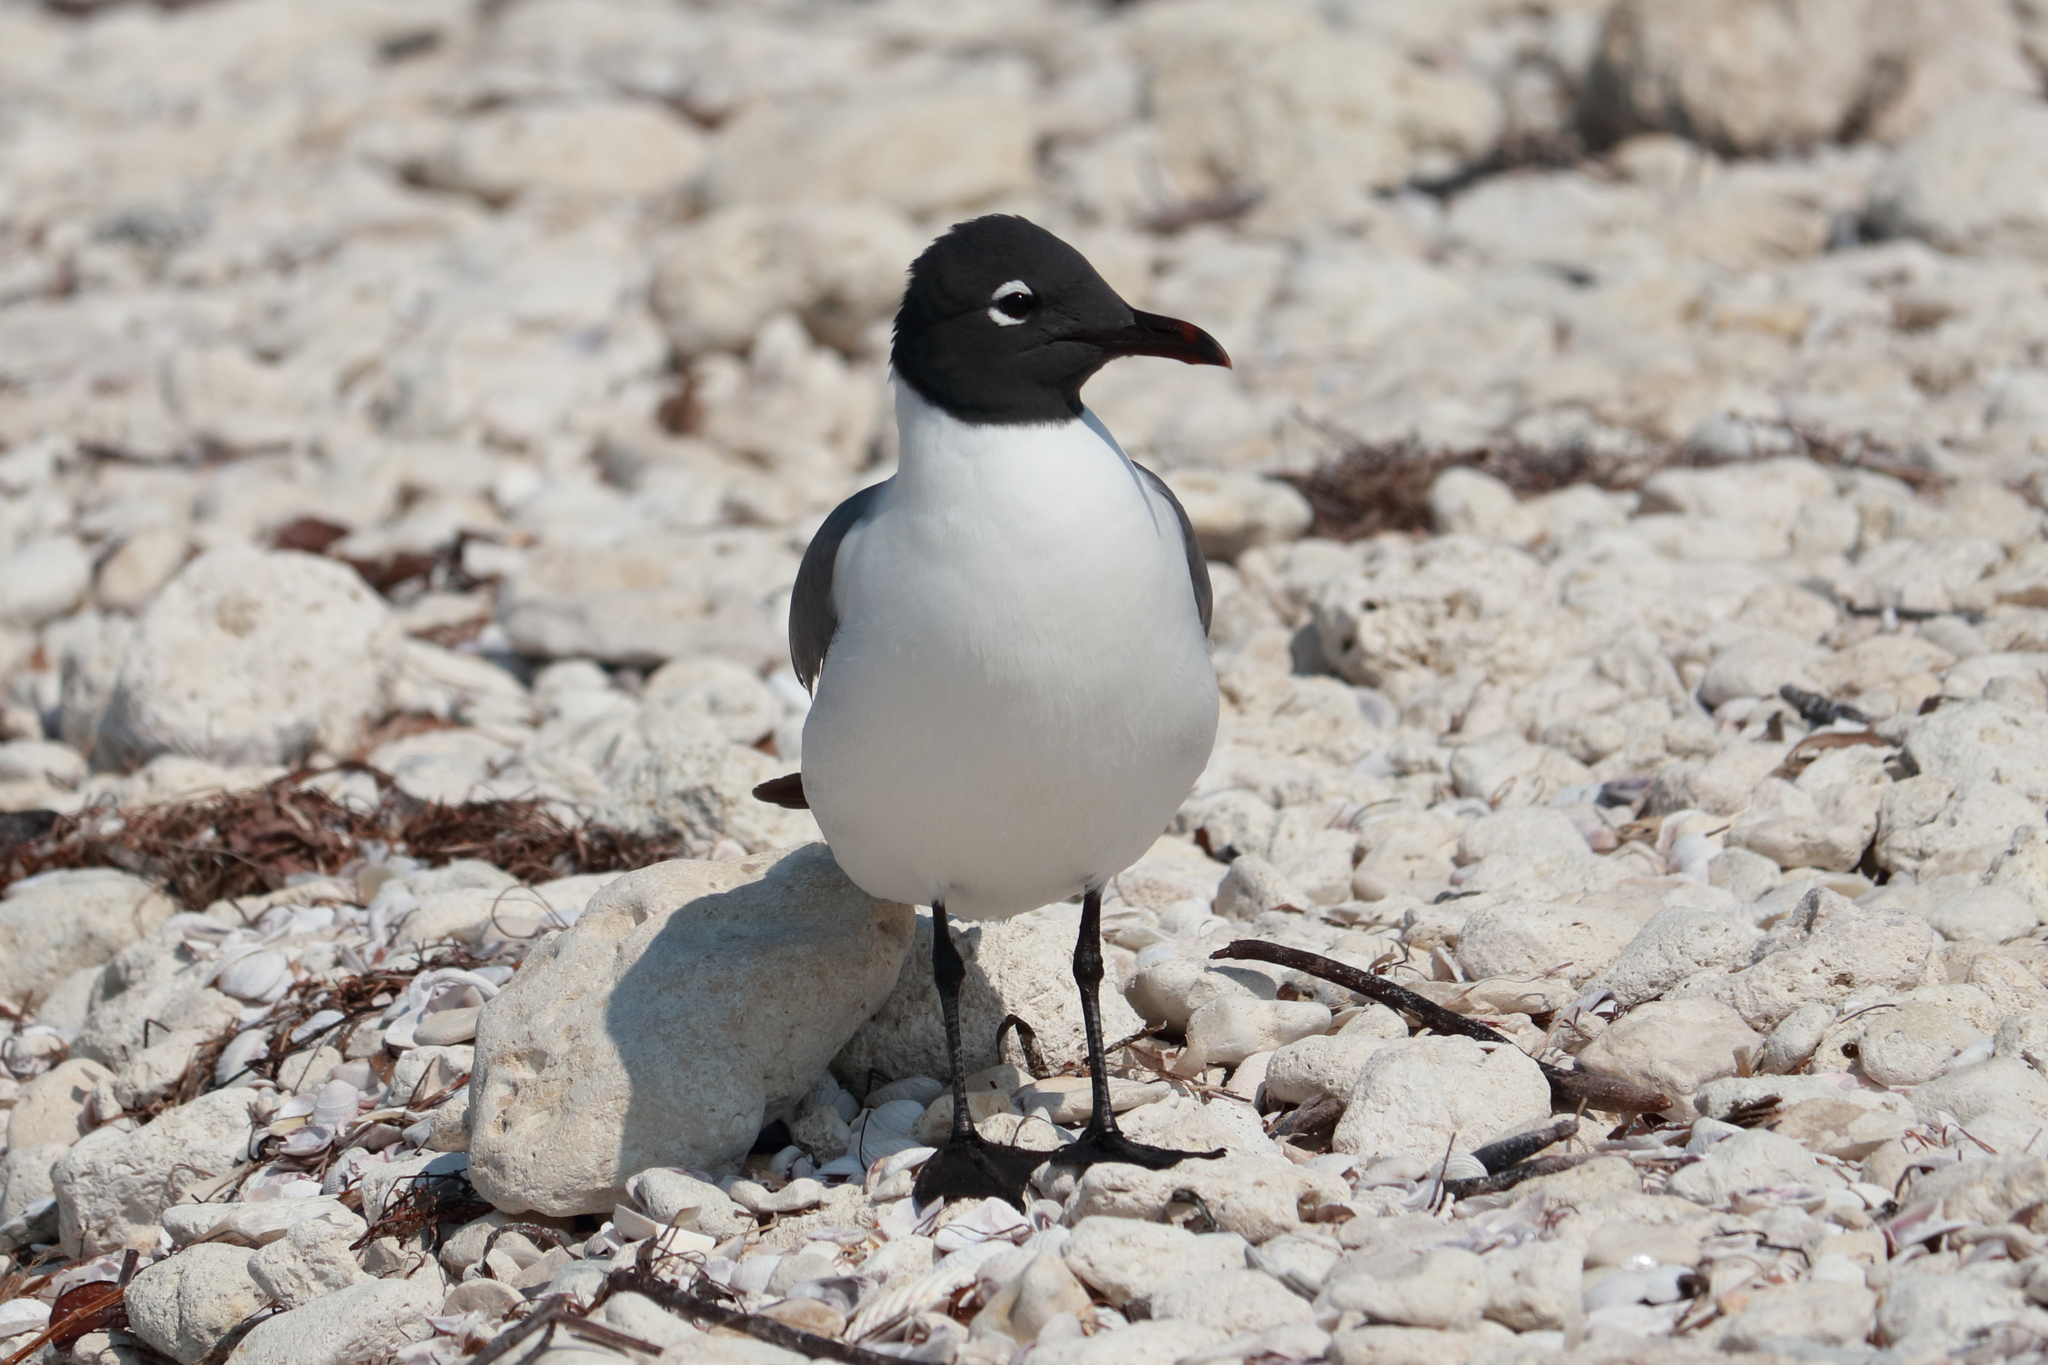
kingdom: Animalia
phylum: Chordata
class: Aves
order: Charadriiformes
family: Laridae
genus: Leucophaeus
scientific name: Leucophaeus atricilla
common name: Laughing gull
